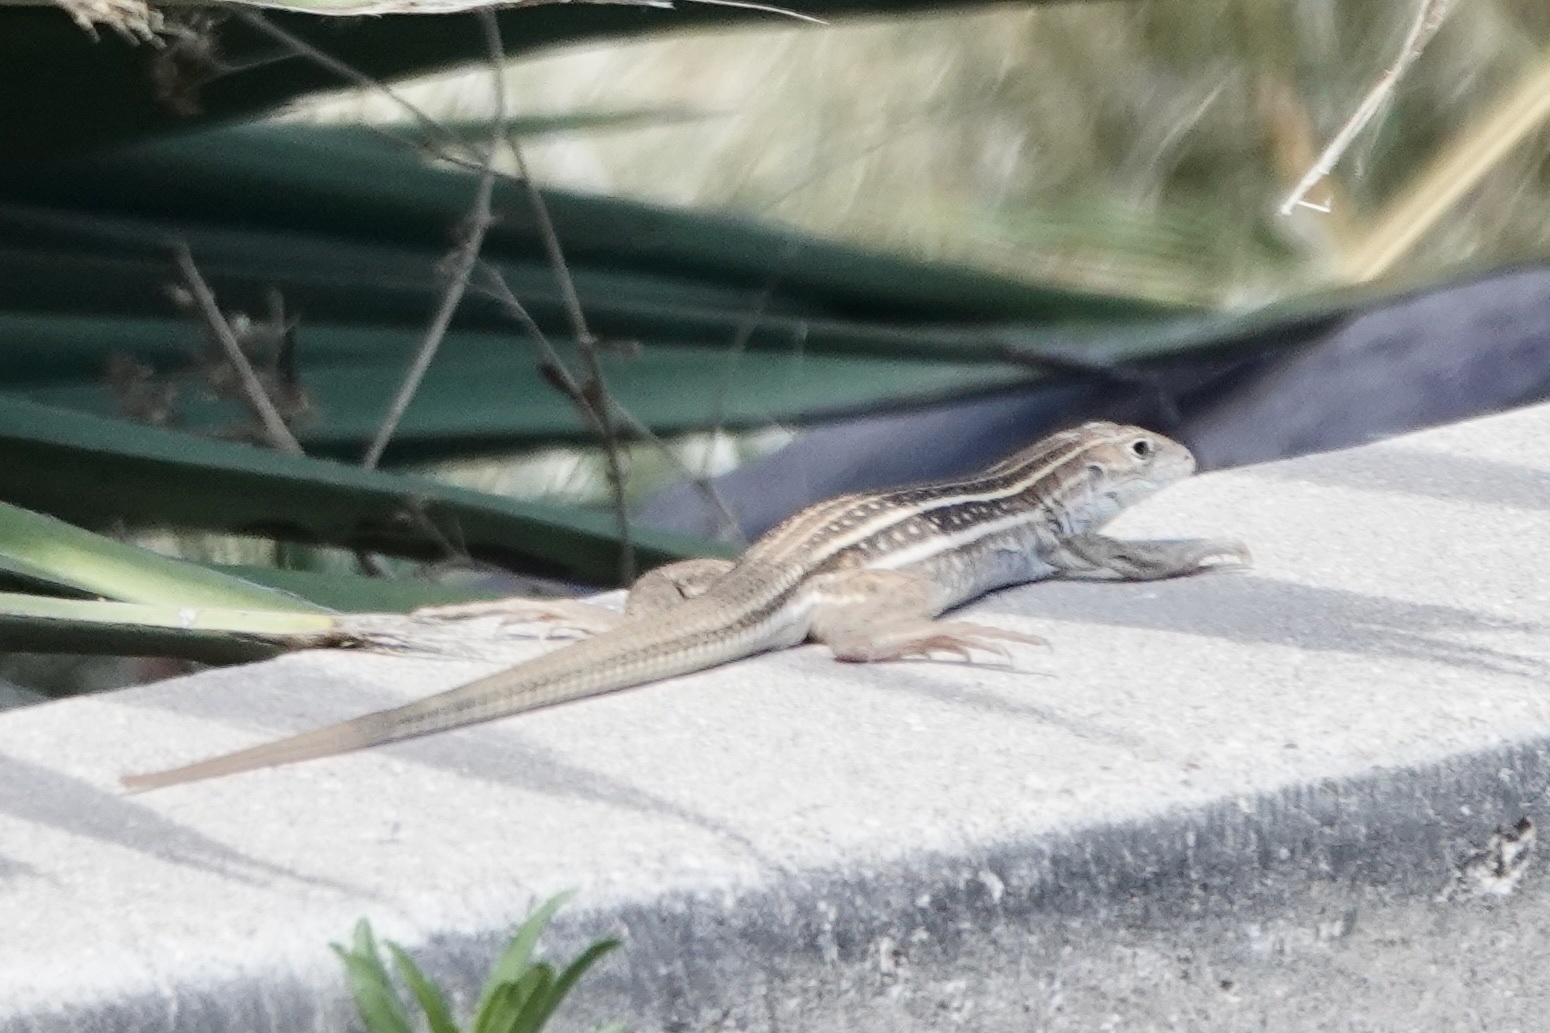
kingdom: Animalia
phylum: Chordata
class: Squamata
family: Teiidae
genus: Aspidoscelis
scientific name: Aspidoscelis sonorae
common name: Sonoran spotted whiptail
